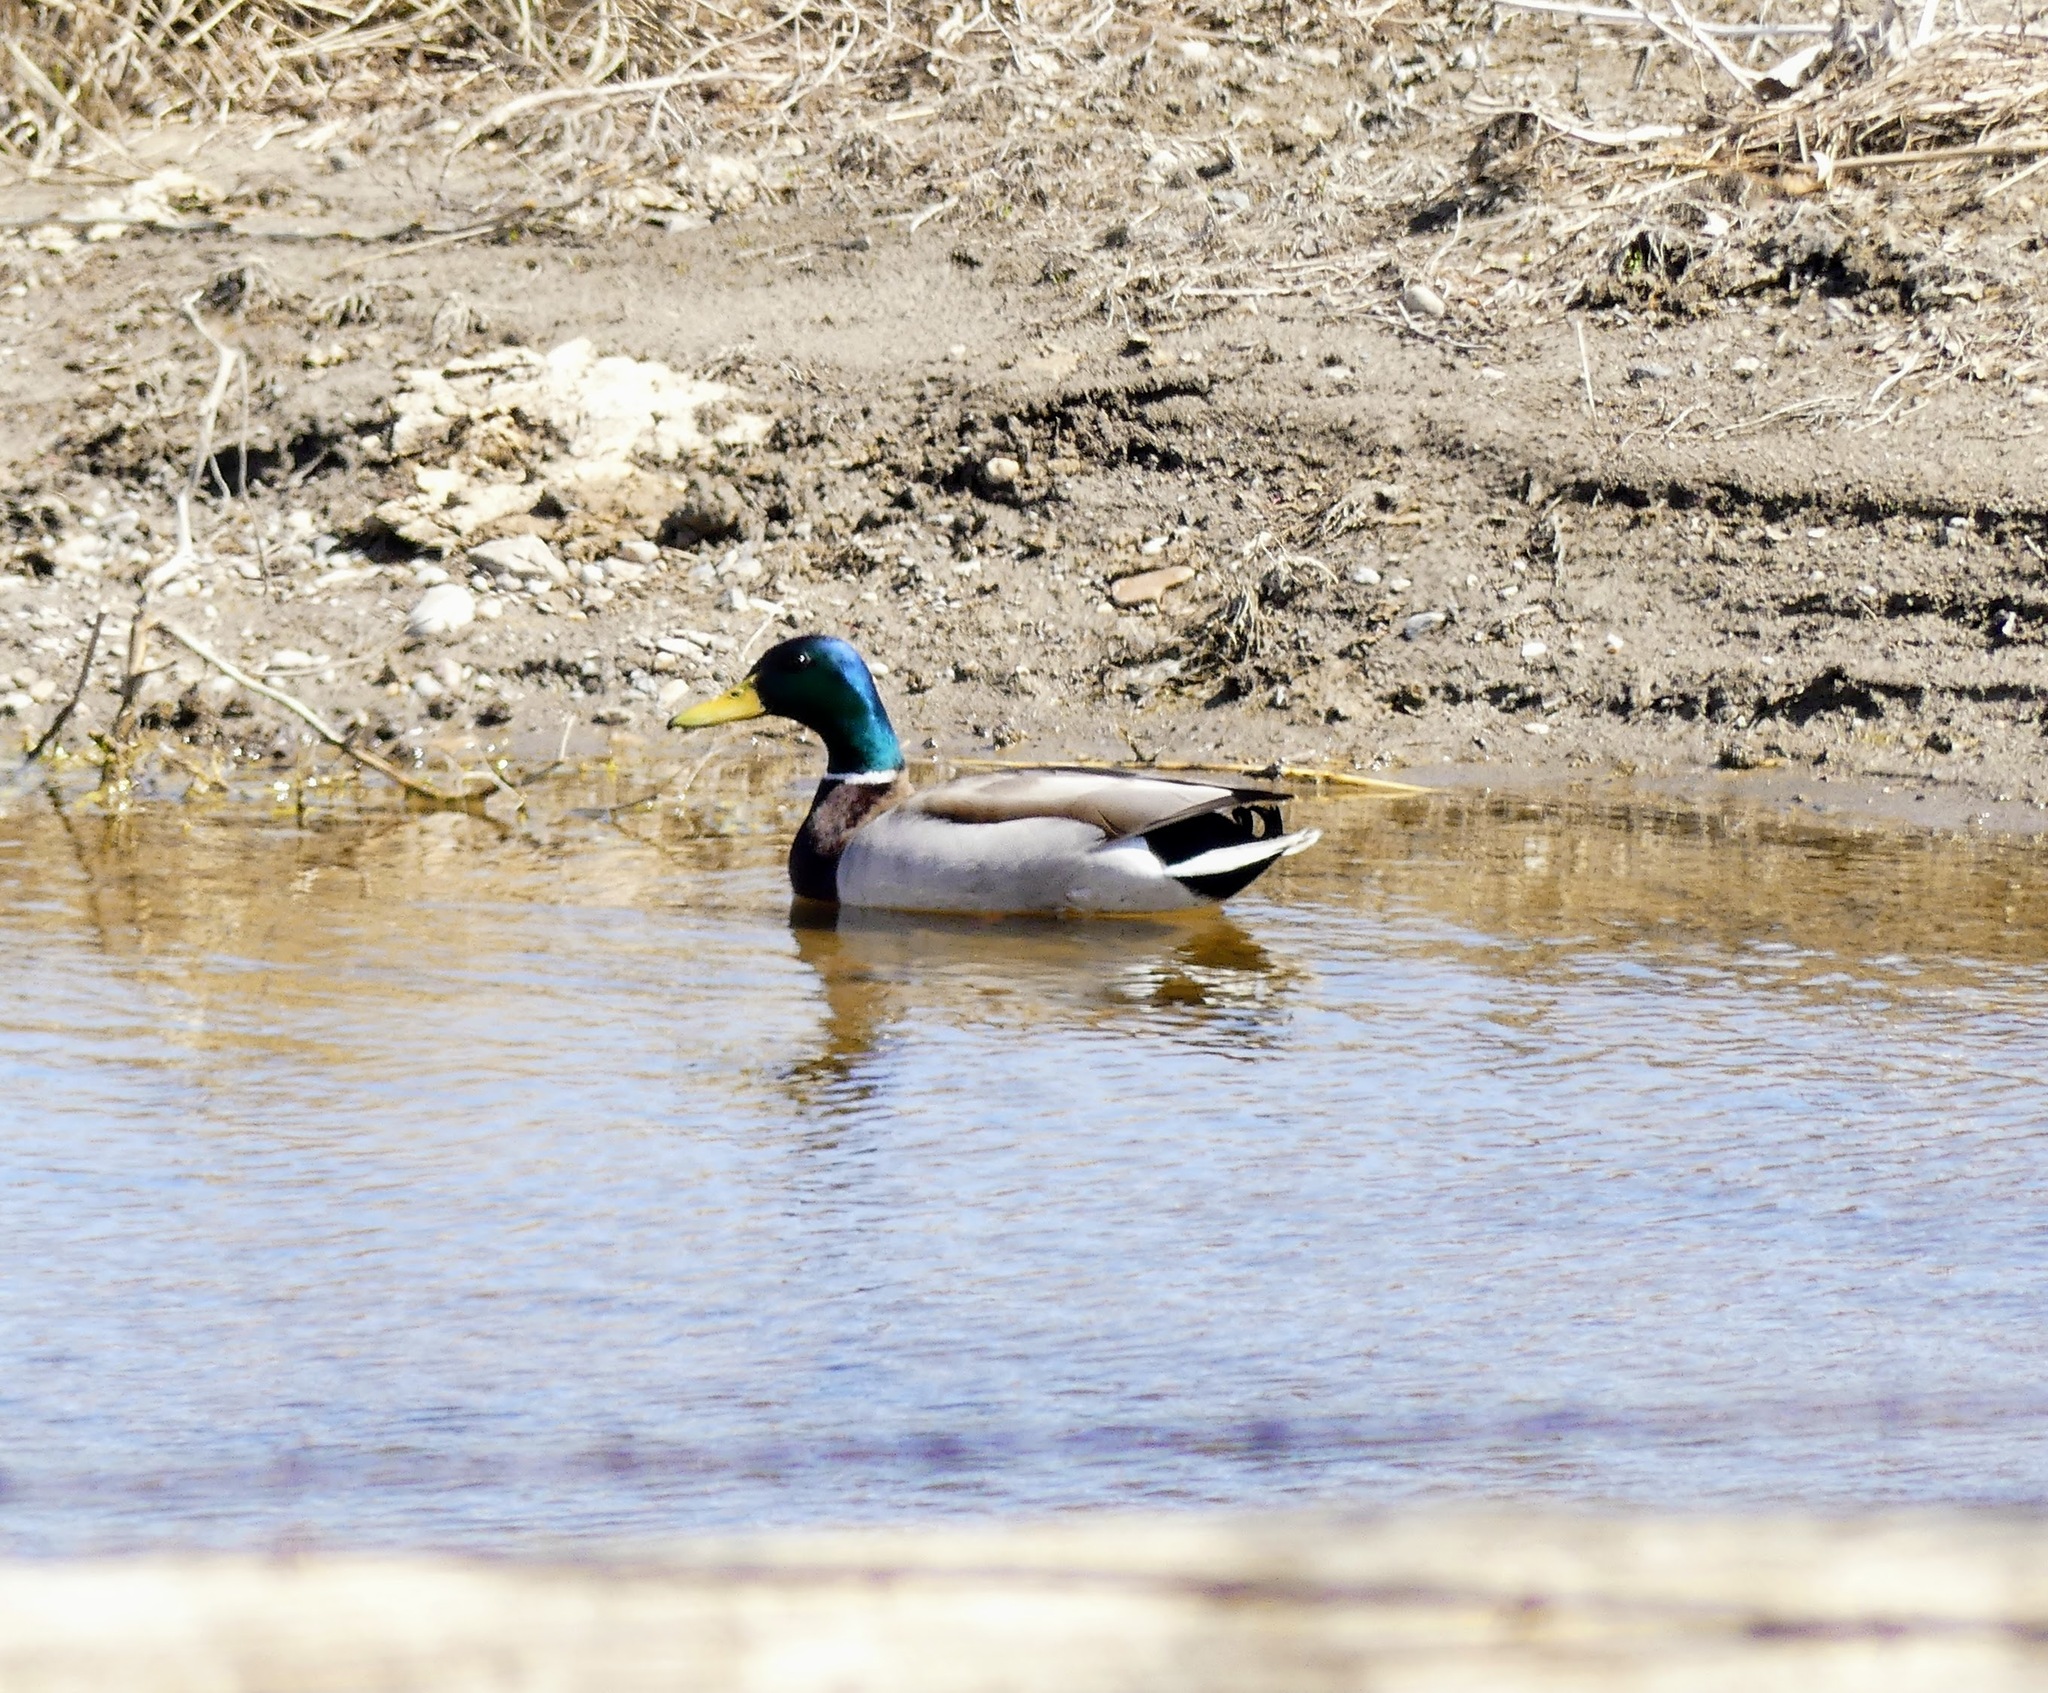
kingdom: Animalia
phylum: Chordata
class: Aves
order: Anseriformes
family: Anatidae
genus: Anas
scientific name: Anas platyrhynchos
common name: Mallard
